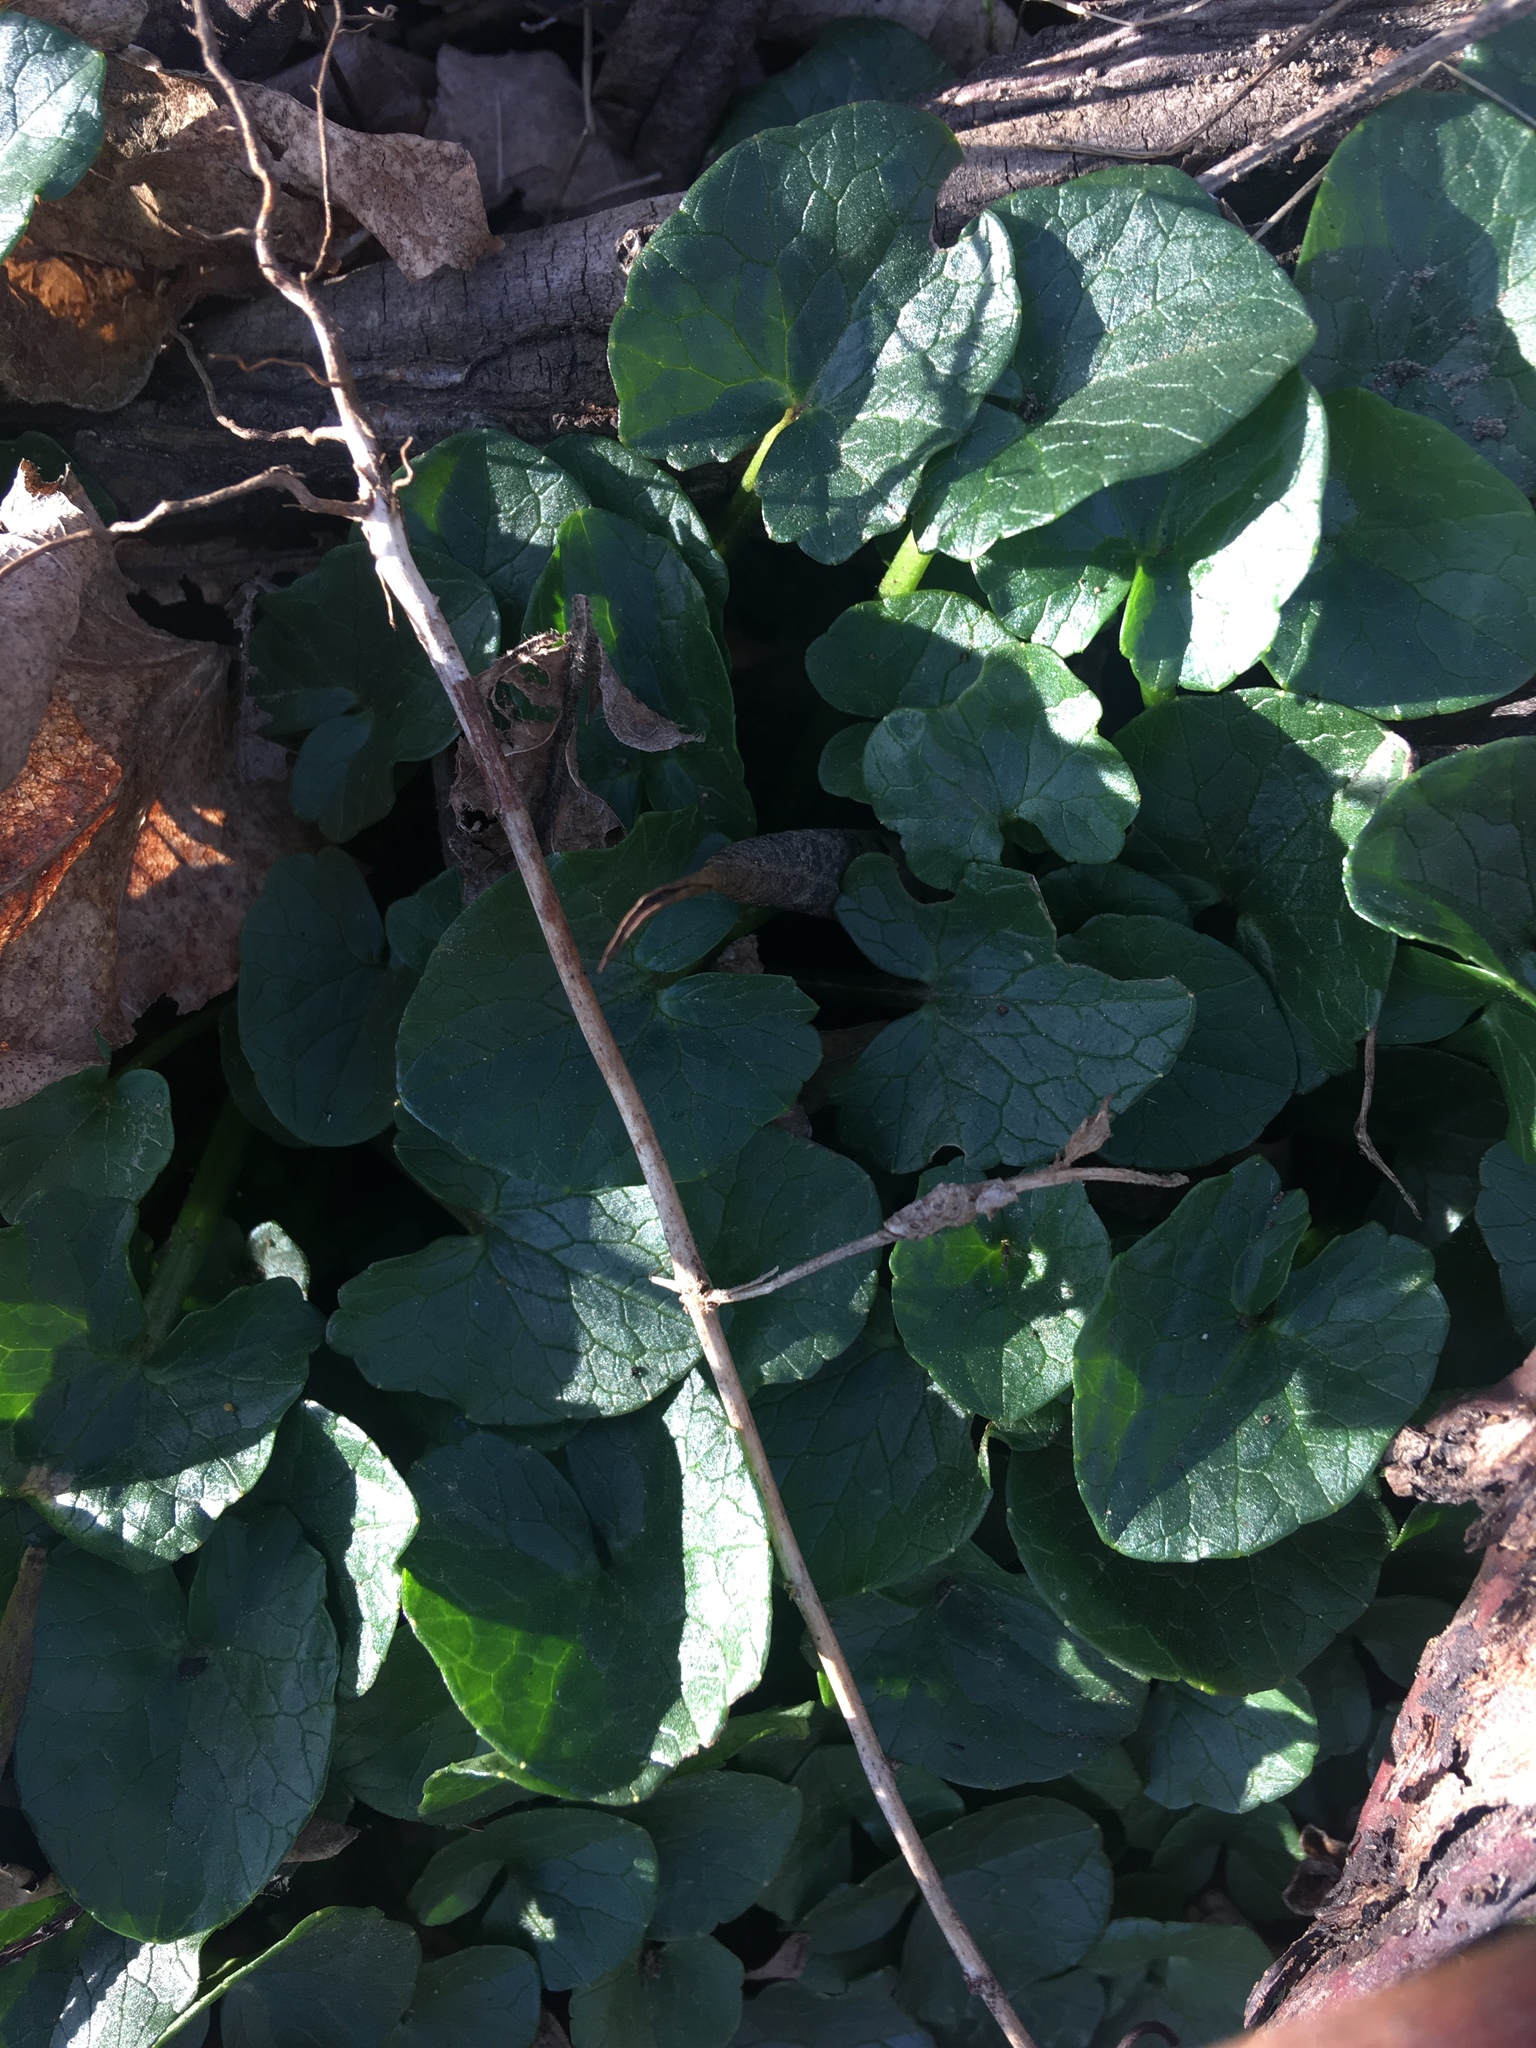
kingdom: Plantae
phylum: Tracheophyta
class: Magnoliopsida
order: Ranunculales
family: Ranunculaceae
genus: Ficaria
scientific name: Ficaria verna
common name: Lesser celandine
